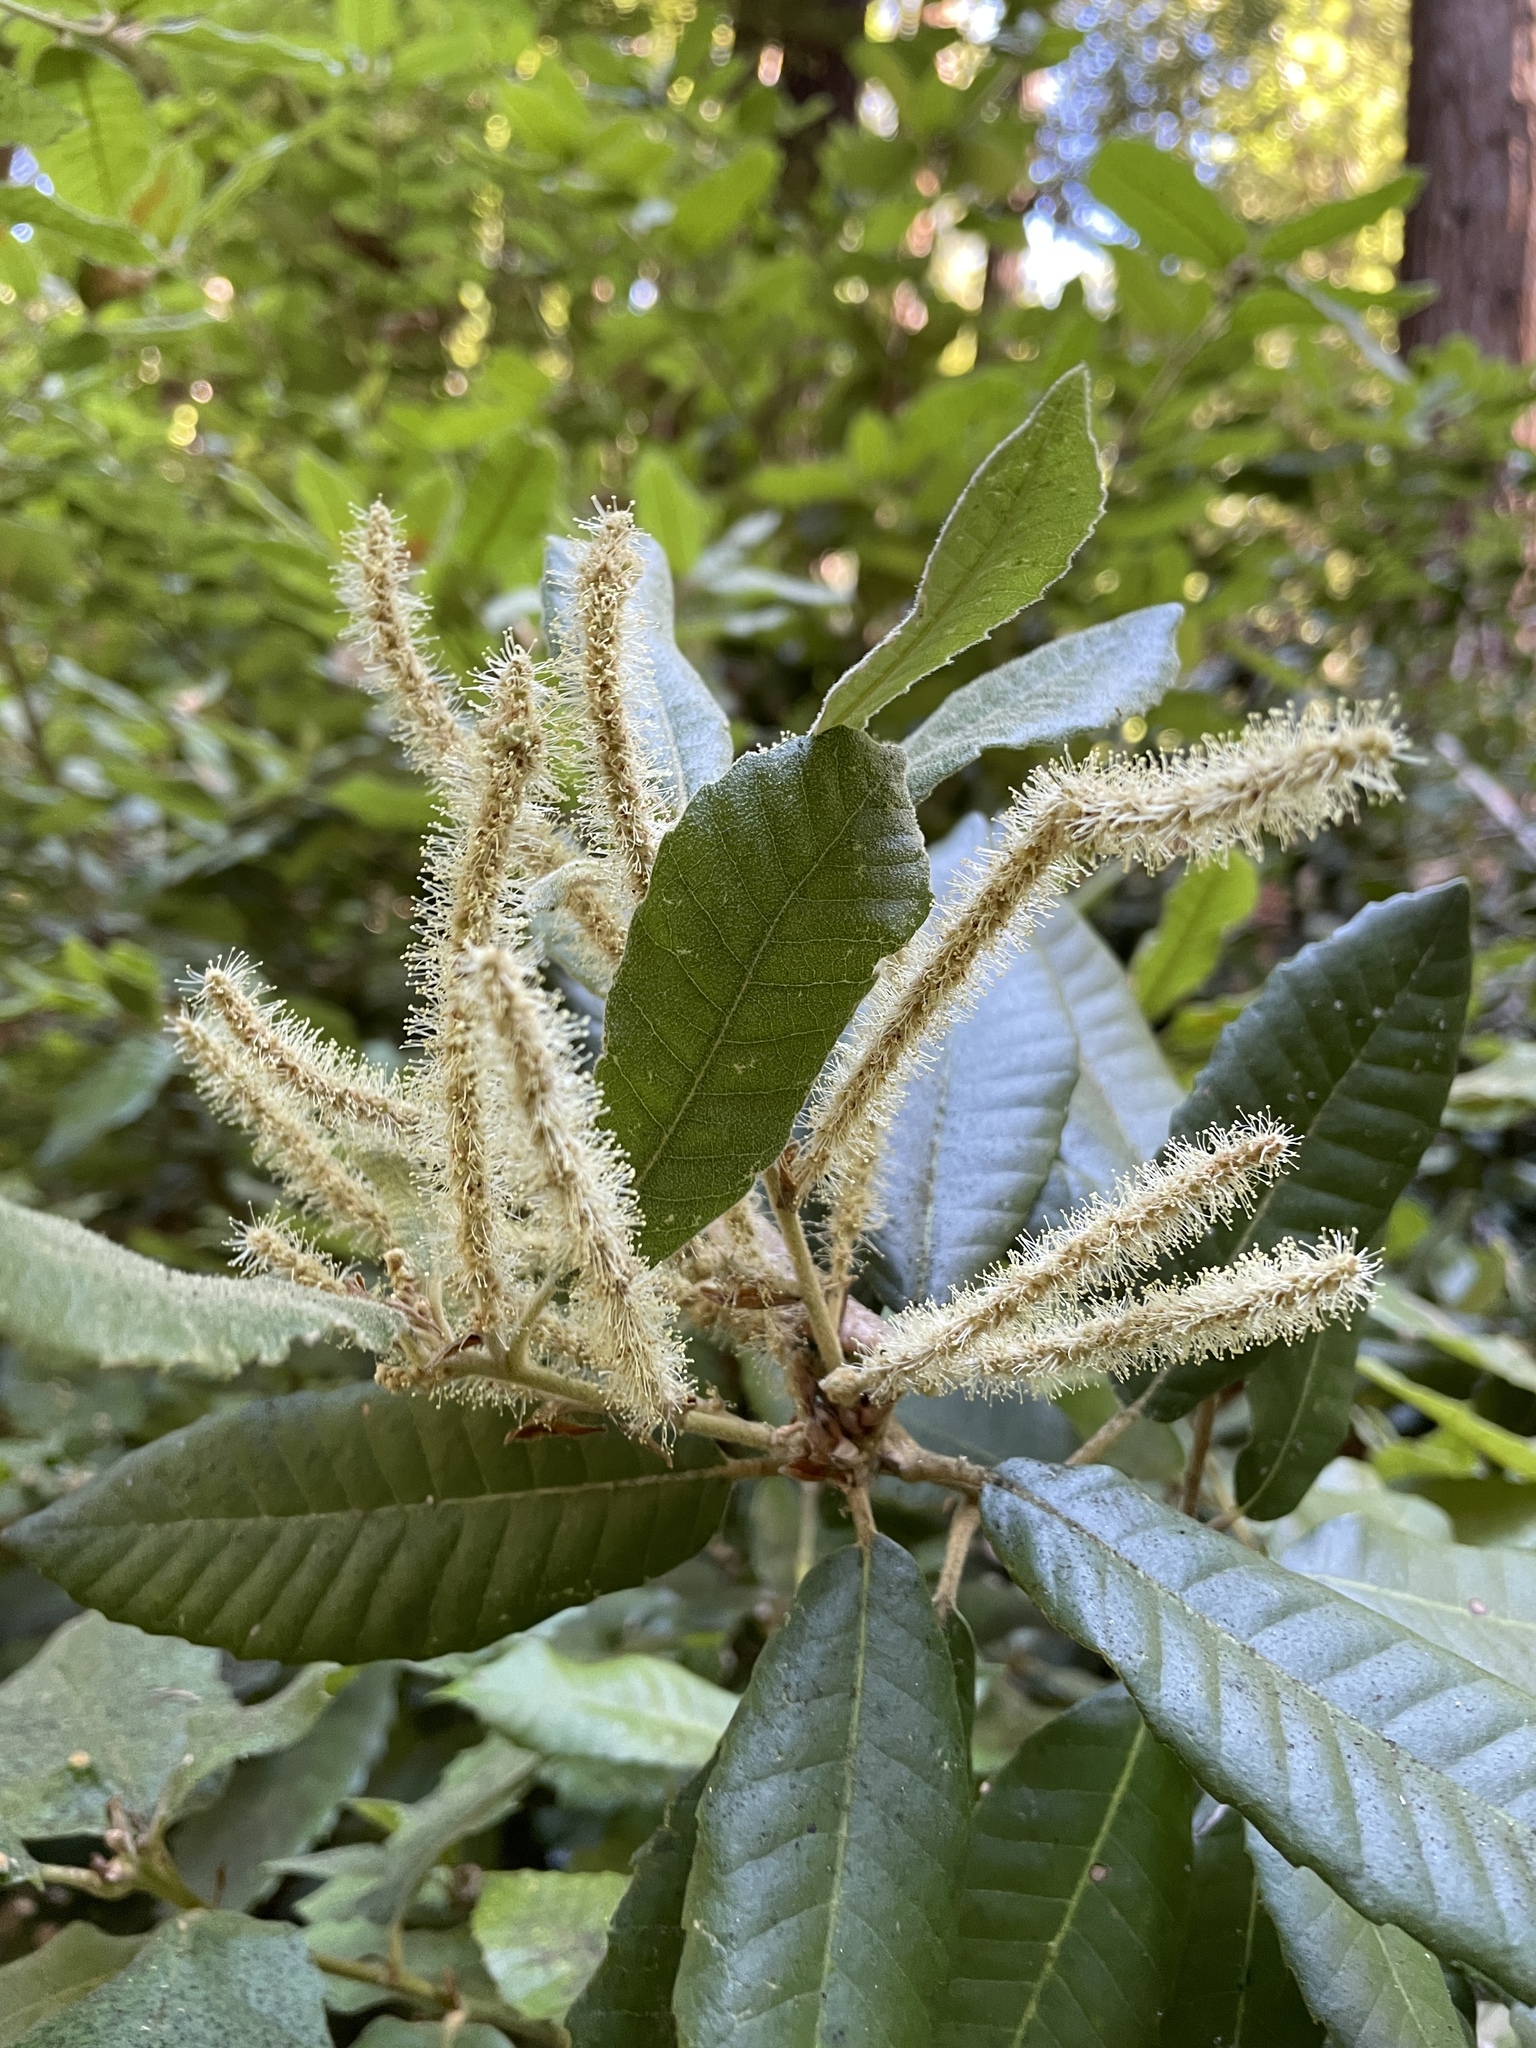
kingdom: Plantae
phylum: Tracheophyta
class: Magnoliopsida
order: Fagales
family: Fagaceae
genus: Notholithocarpus
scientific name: Notholithocarpus densiflorus
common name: Tan bark oak
